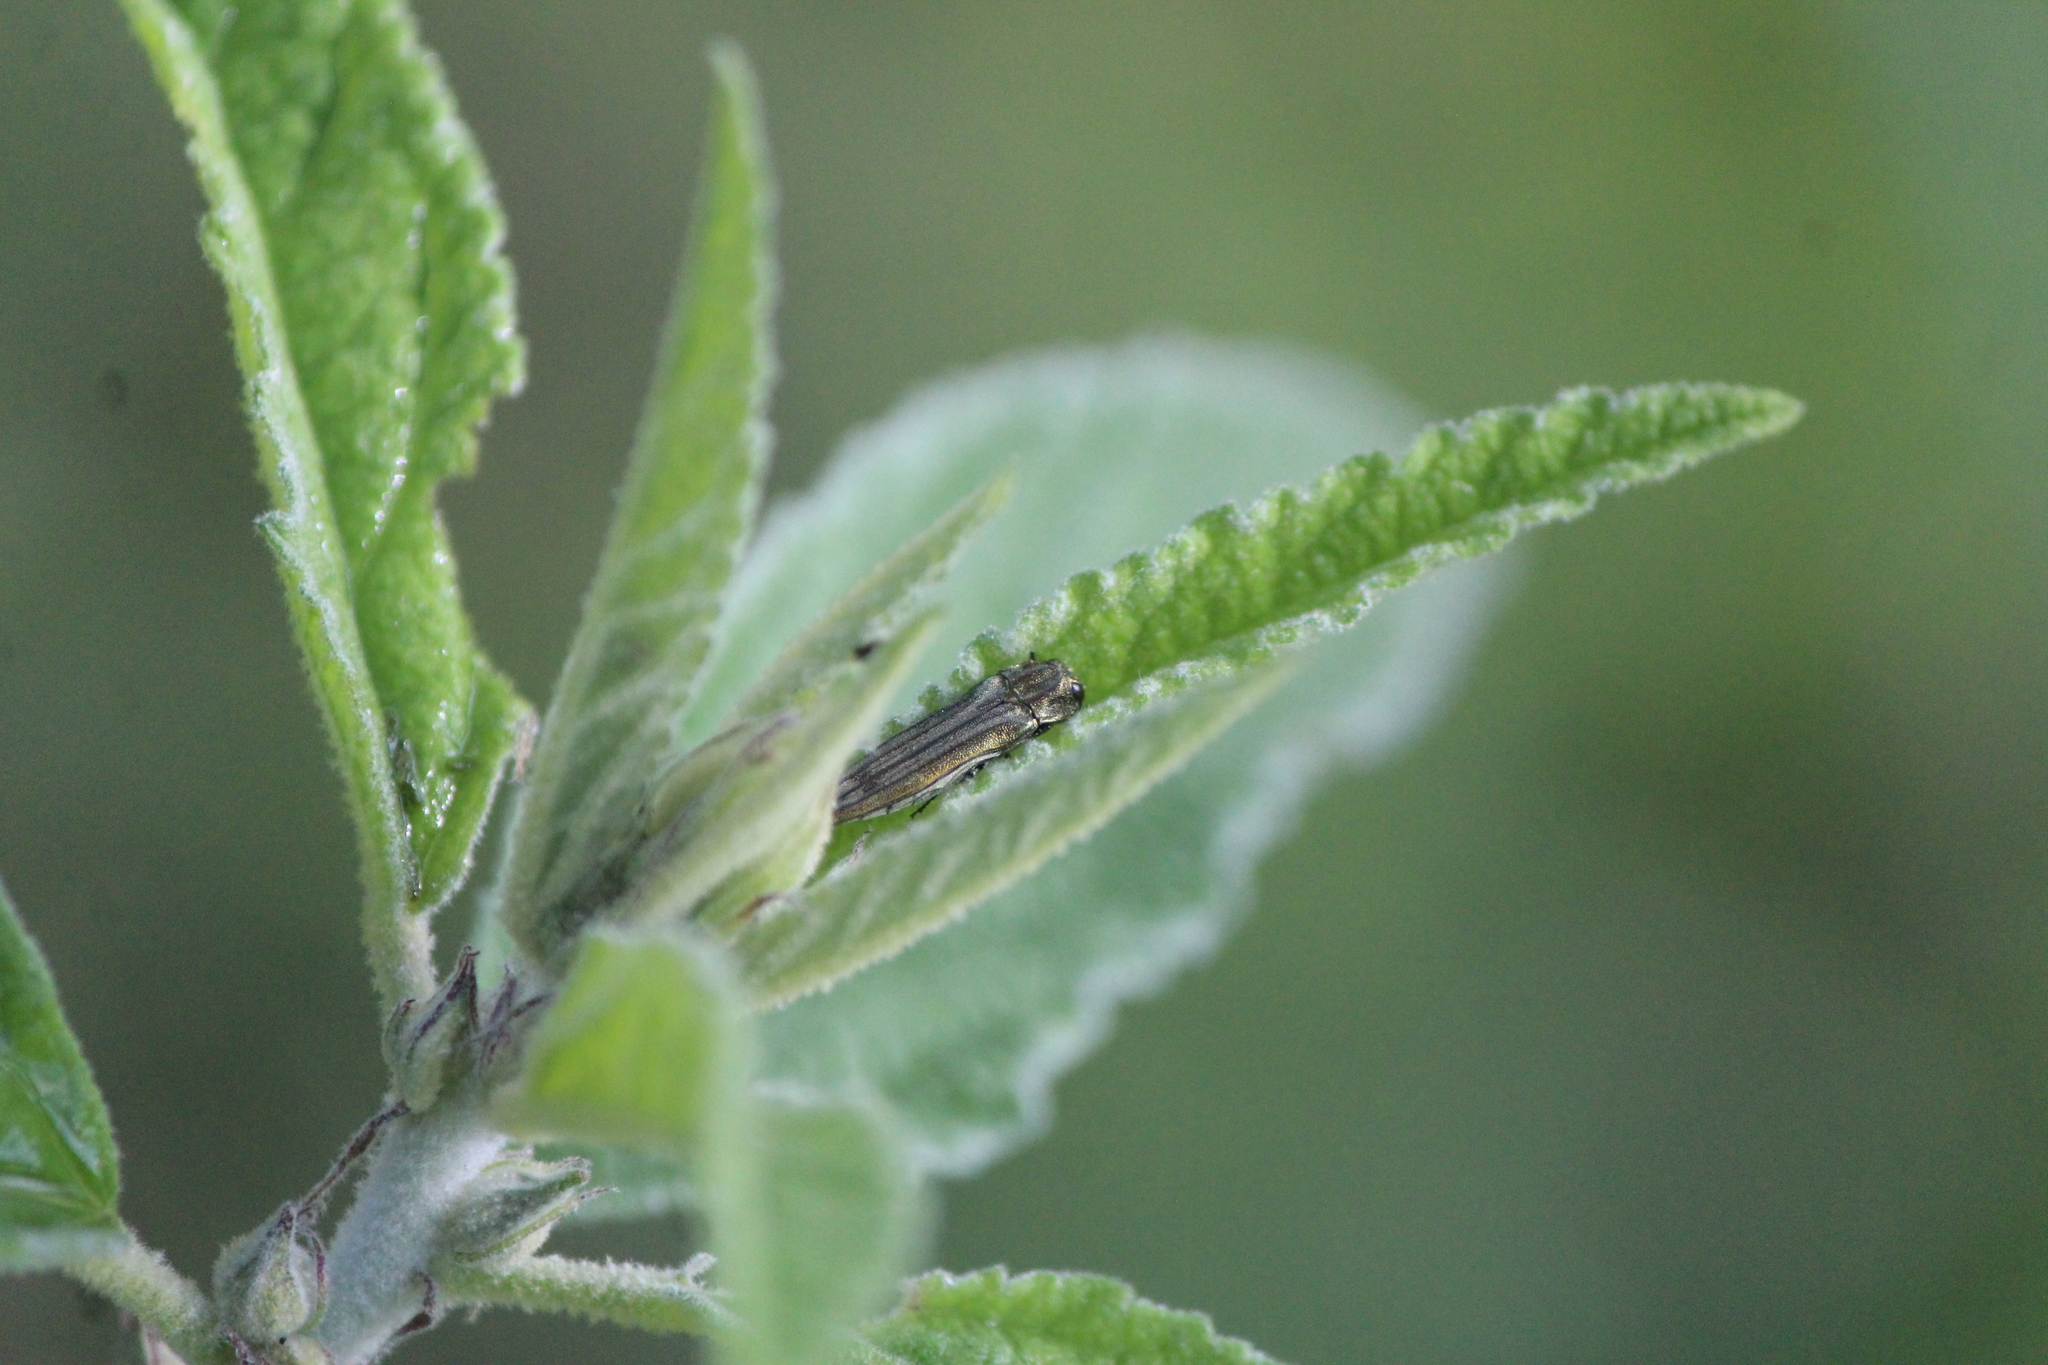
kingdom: Animalia
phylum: Arthropoda
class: Insecta
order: Coleoptera
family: Buprestidae
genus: Agrilus
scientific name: Agrilus aureus
